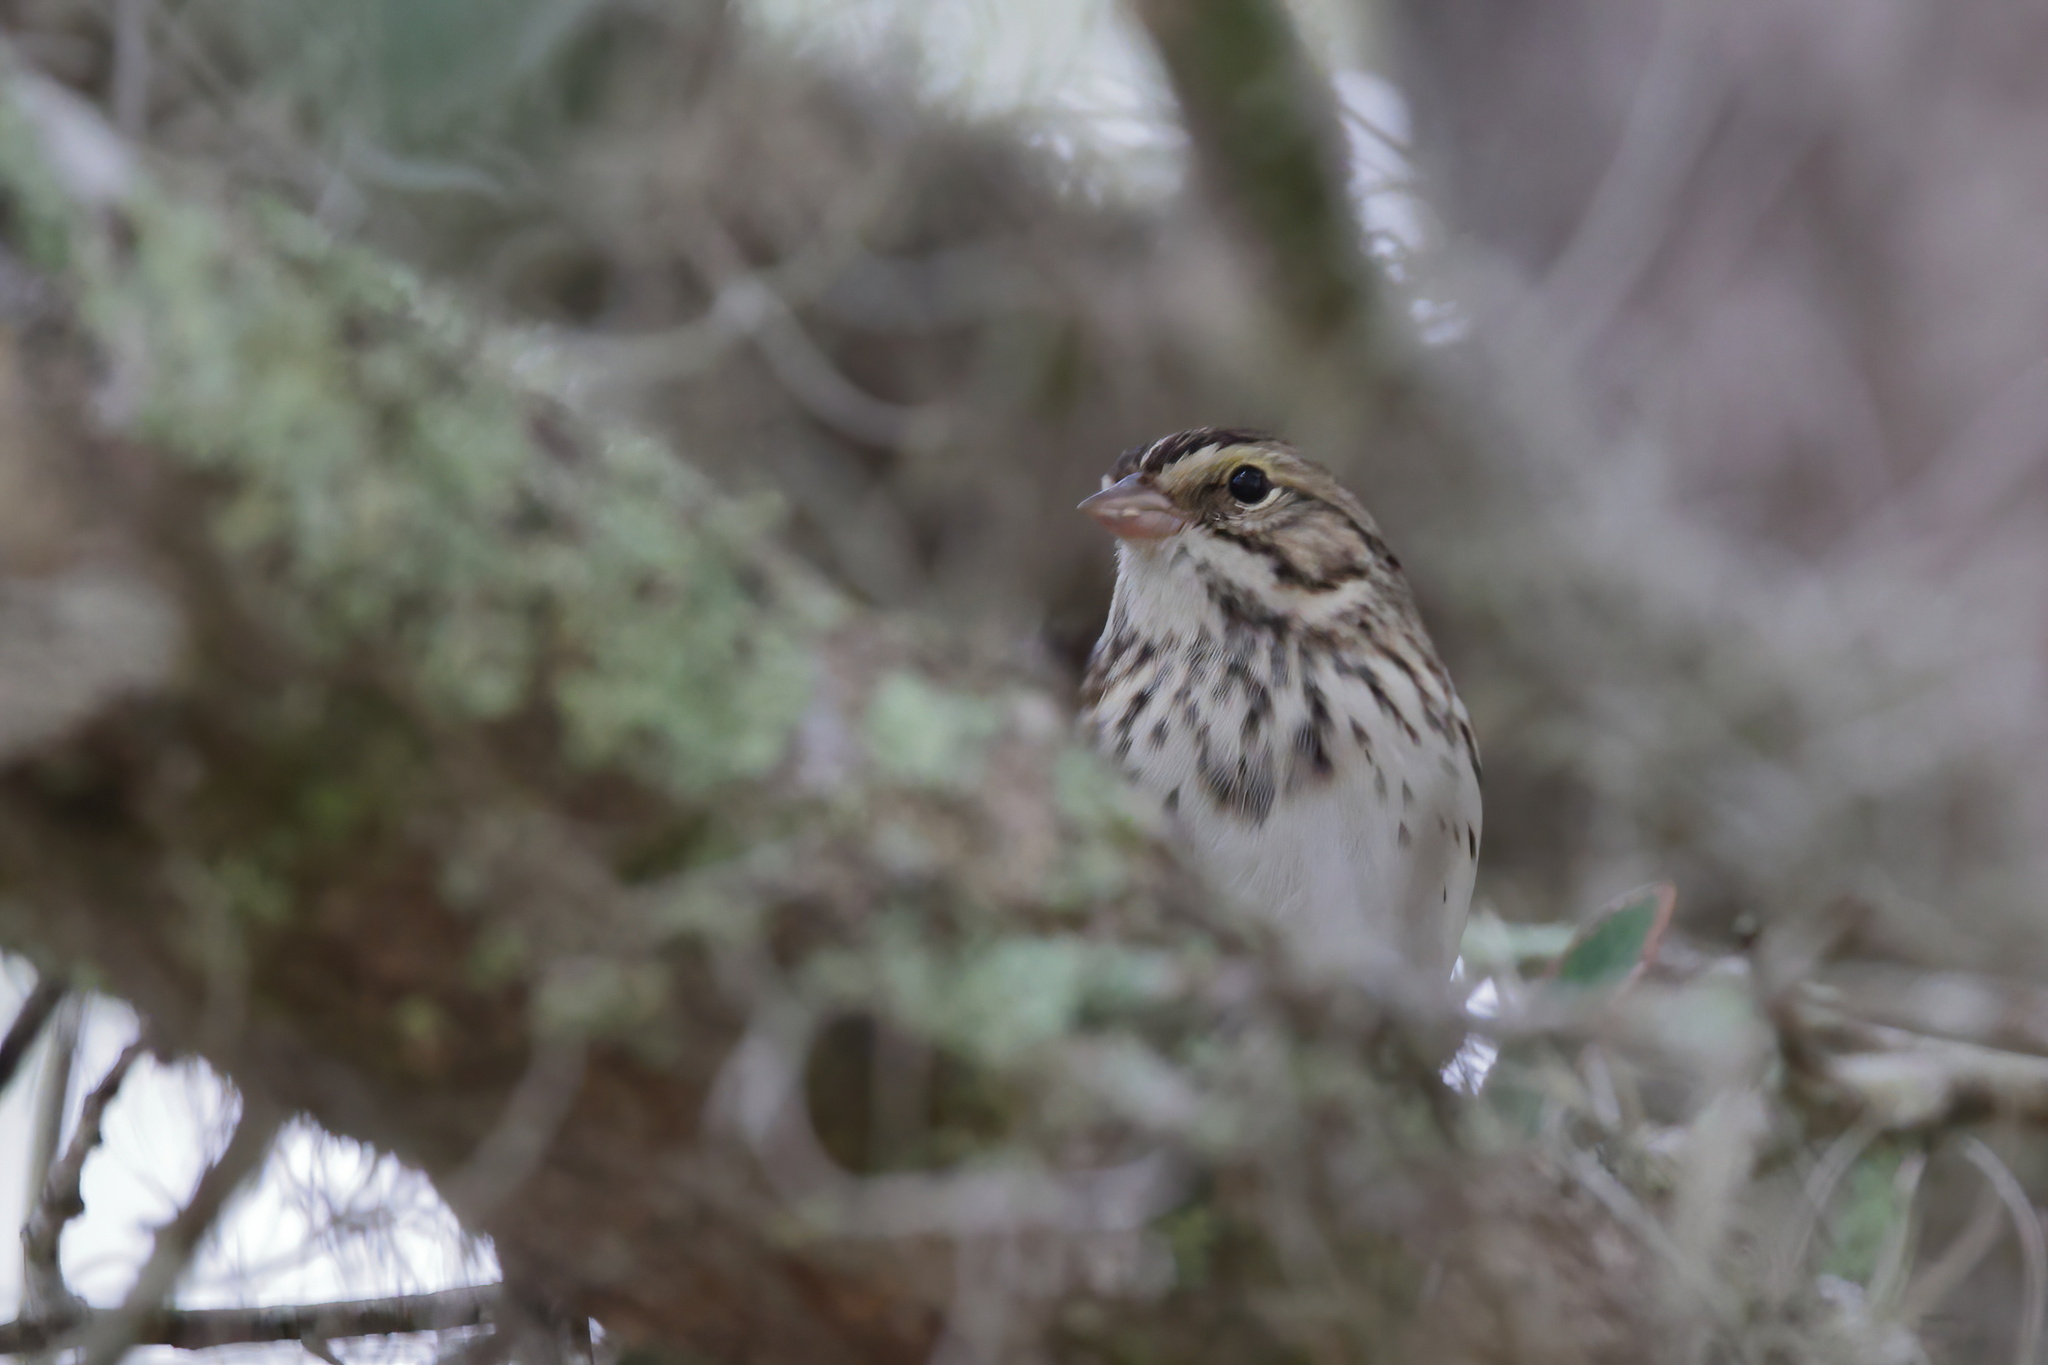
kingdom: Animalia
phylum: Chordata
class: Aves
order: Passeriformes
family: Passerellidae
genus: Passerculus
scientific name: Passerculus sandwichensis
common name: Savannah sparrow
